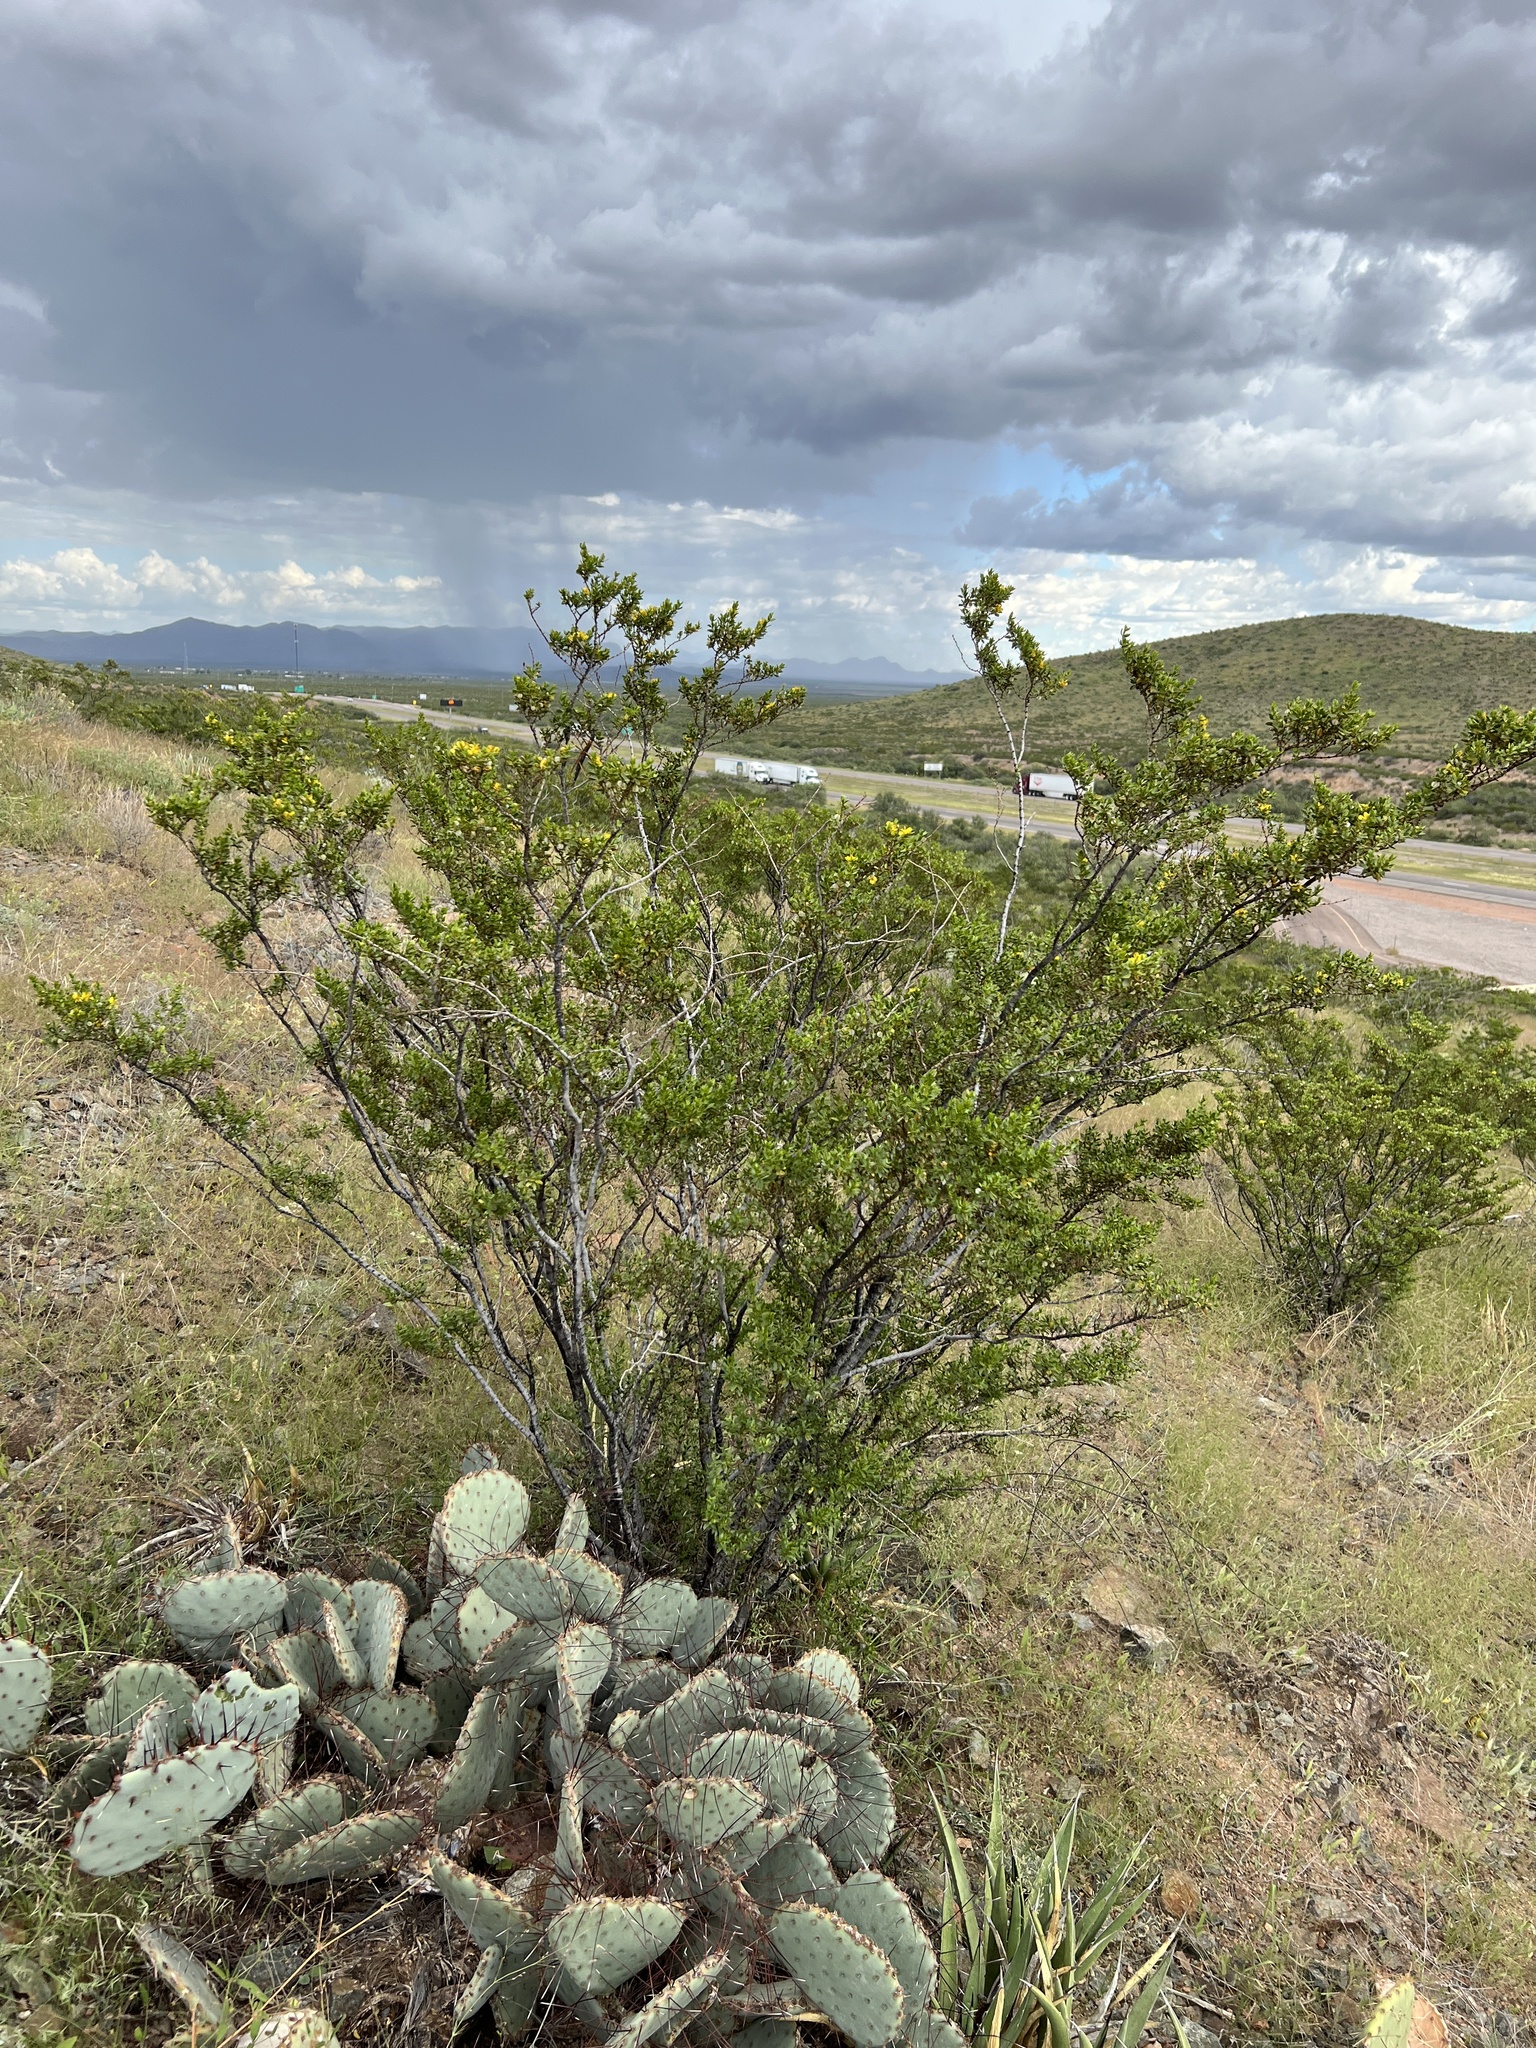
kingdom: Plantae
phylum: Tracheophyta
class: Magnoliopsida
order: Zygophyllales
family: Zygophyllaceae
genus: Larrea
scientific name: Larrea tridentata
